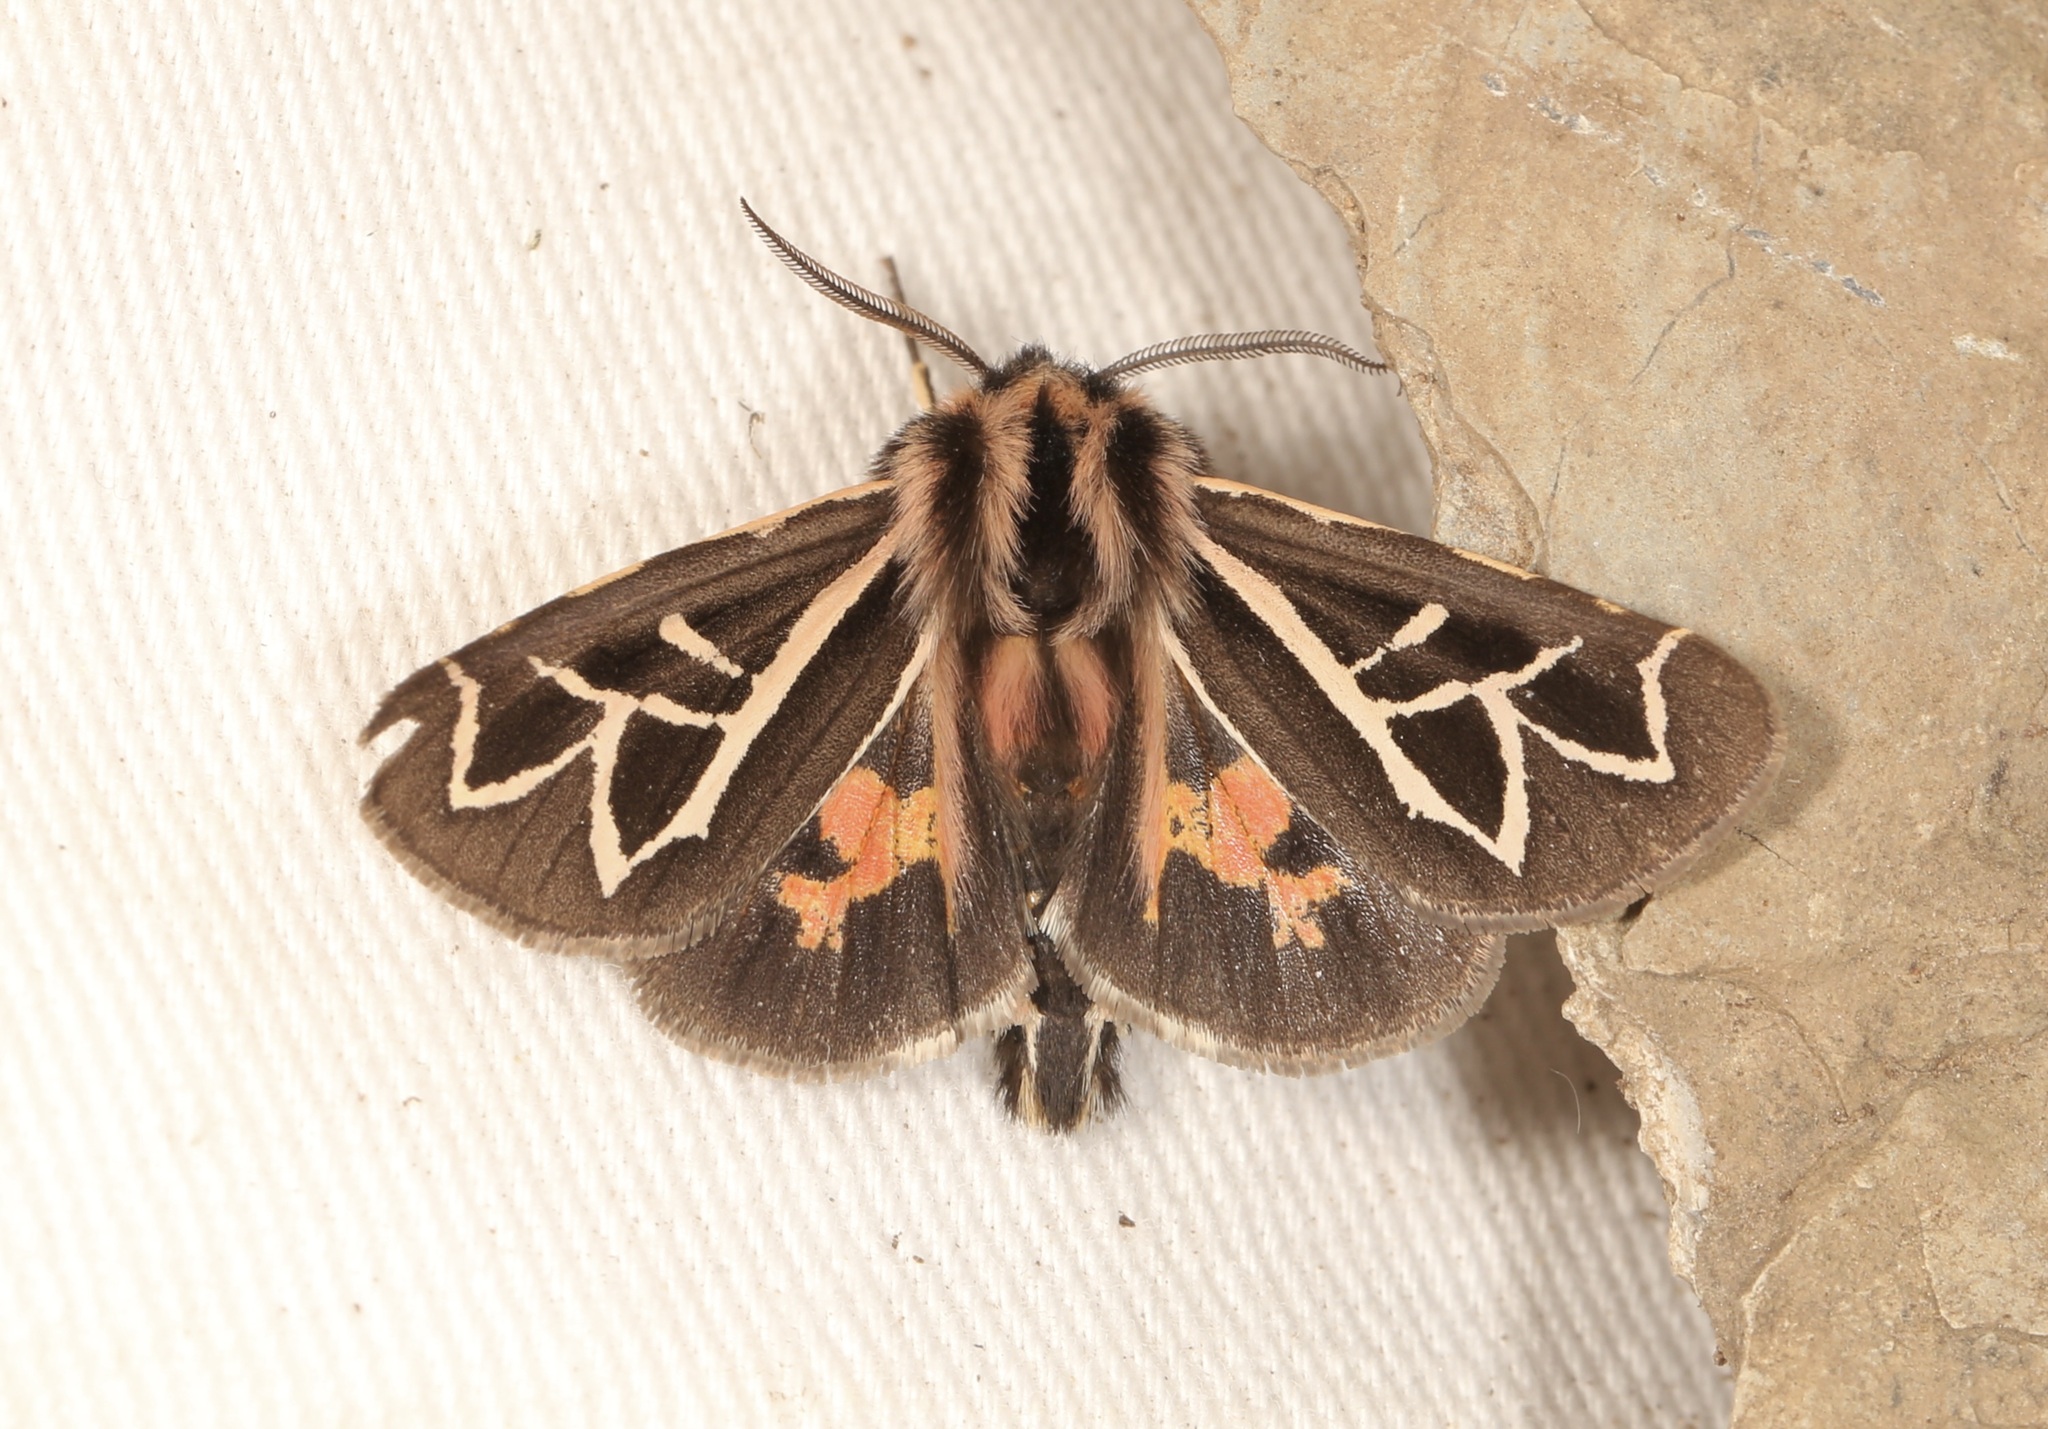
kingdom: Animalia
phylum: Arthropoda
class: Insecta
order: Lepidoptera
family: Erebidae
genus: Apantesis
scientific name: Apantesis
